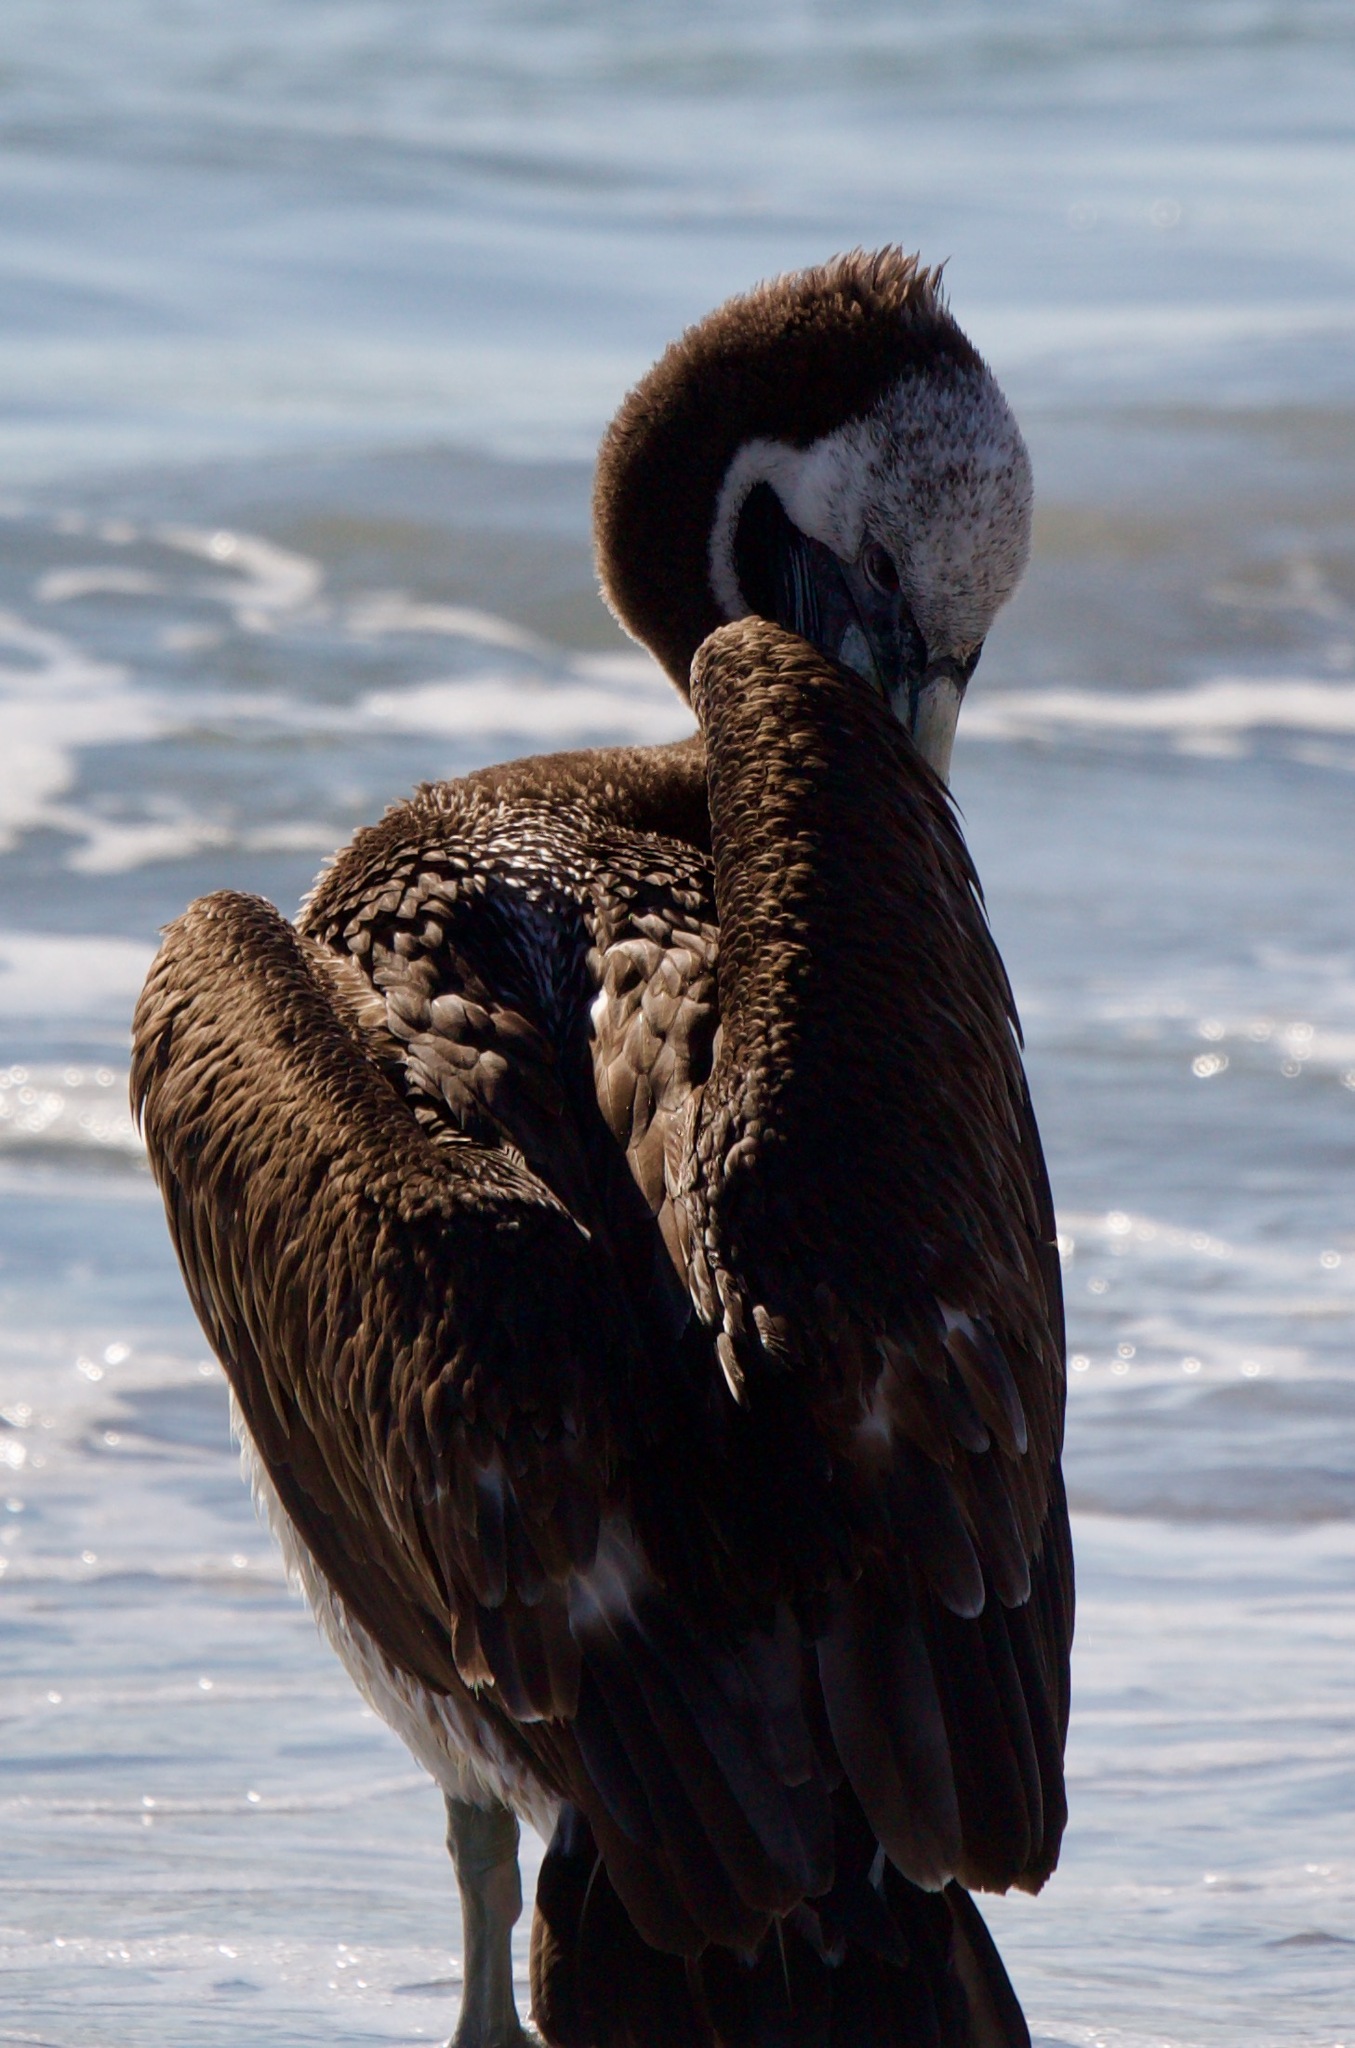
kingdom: Animalia
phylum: Chordata
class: Aves
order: Pelecaniformes
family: Pelecanidae
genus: Pelecanus
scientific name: Pelecanus thagus
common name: Peruvian pelican
